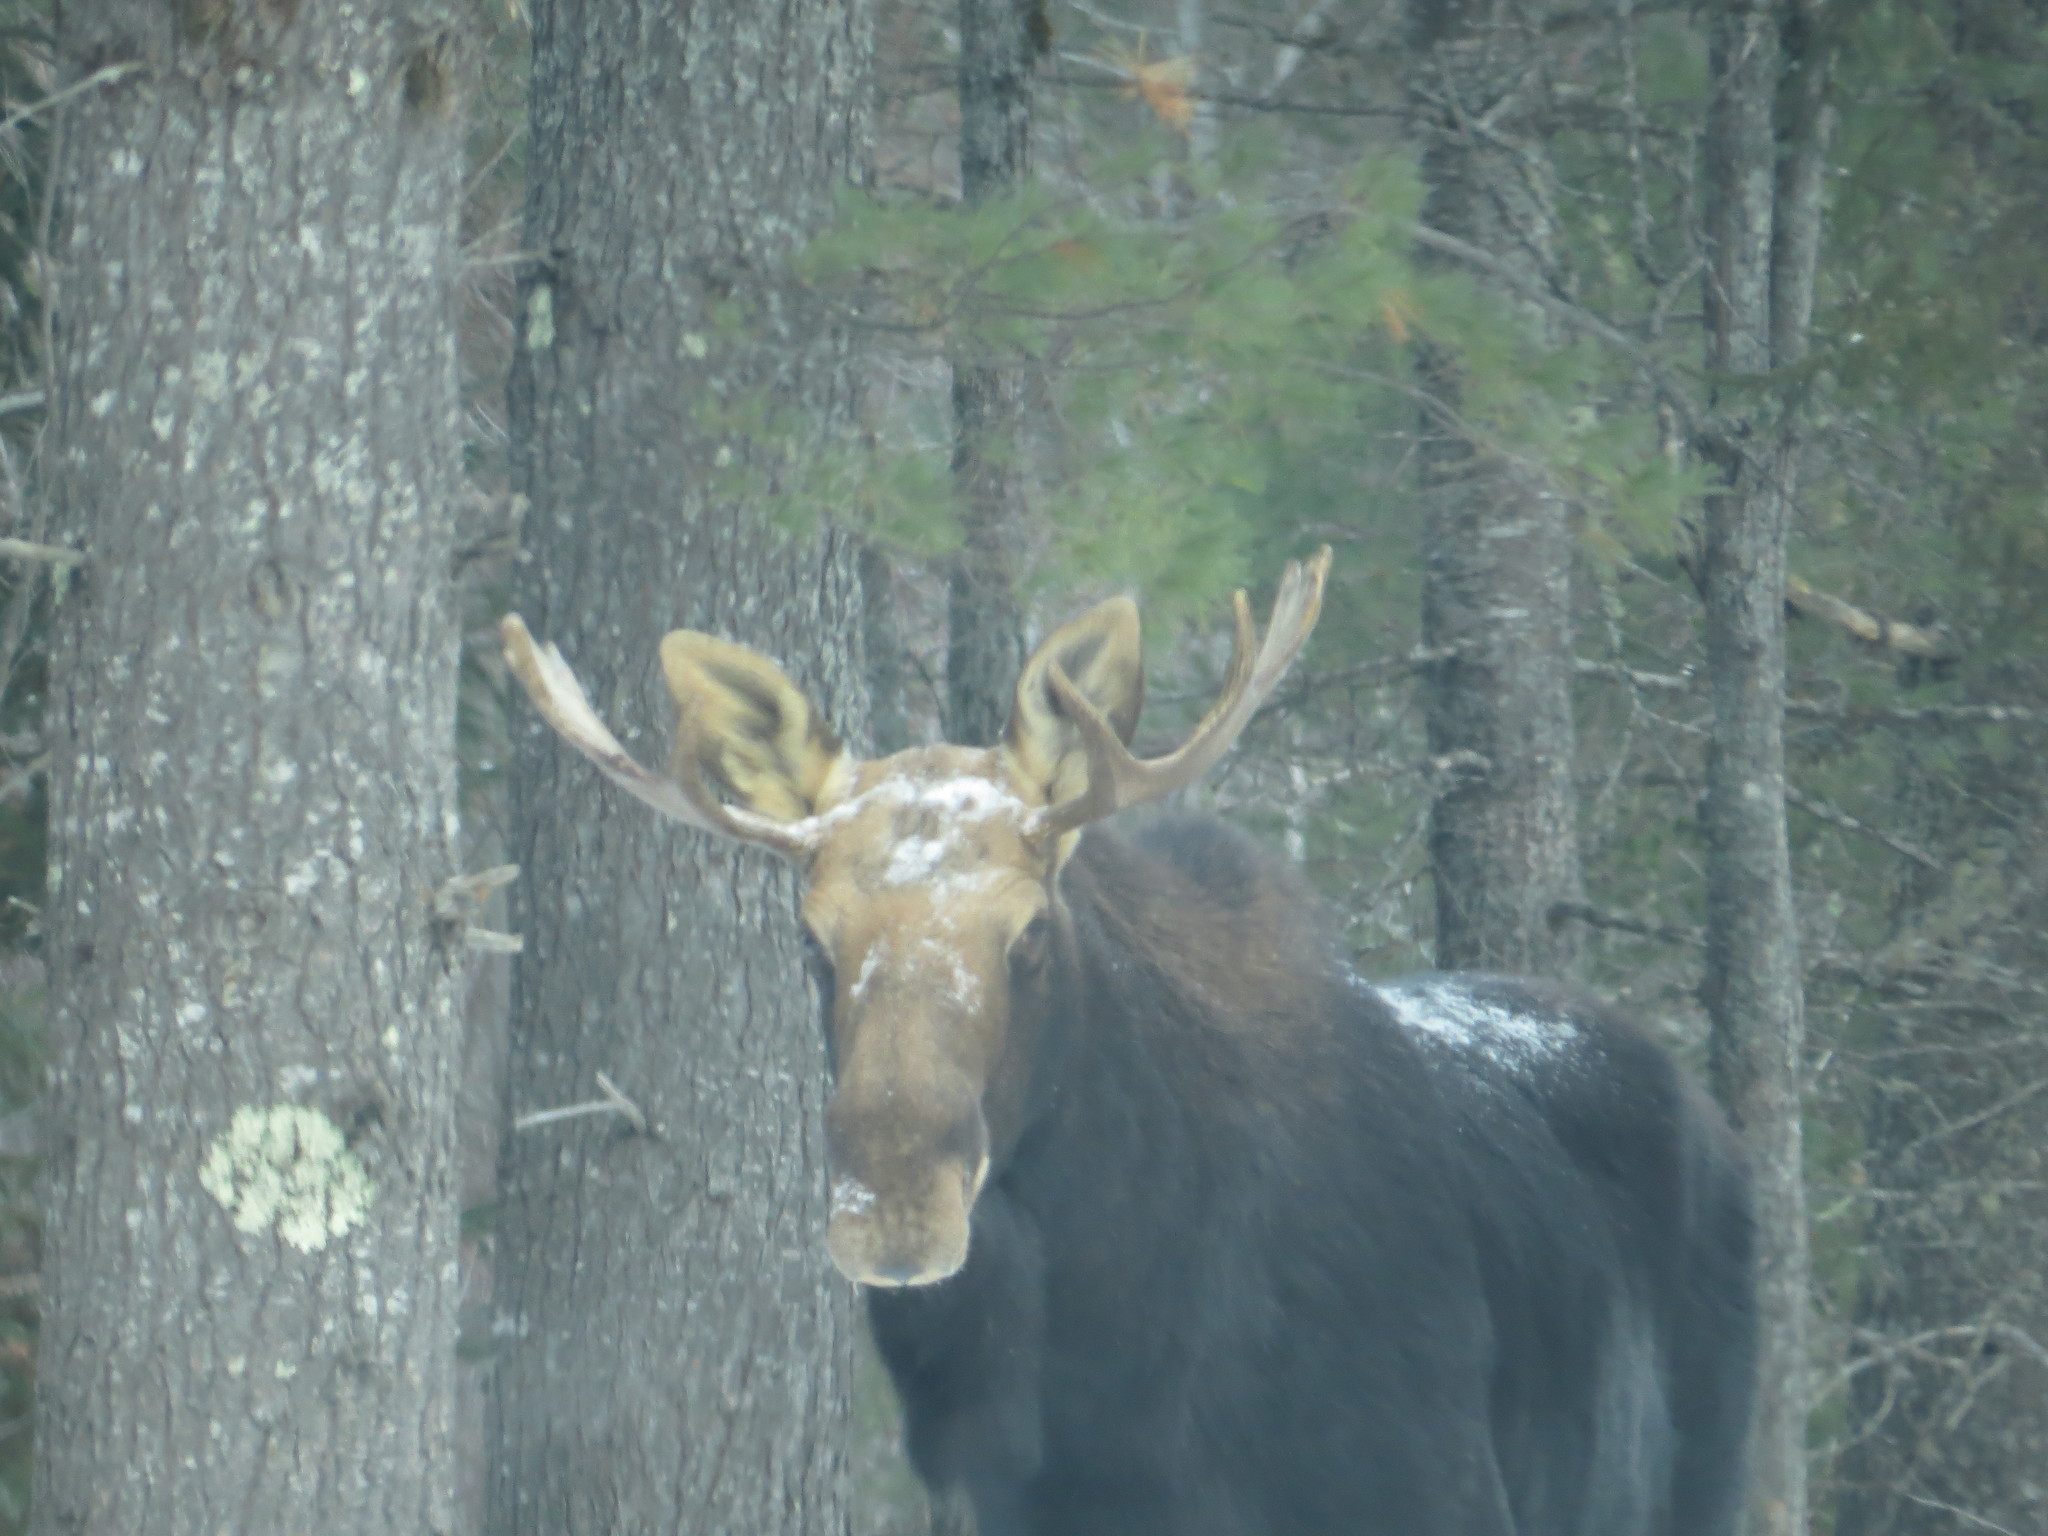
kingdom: Animalia
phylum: Chordata
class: Mammalia
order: Artiodactyla
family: Cervidae
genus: Alces
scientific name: Alces alces
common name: Moose
